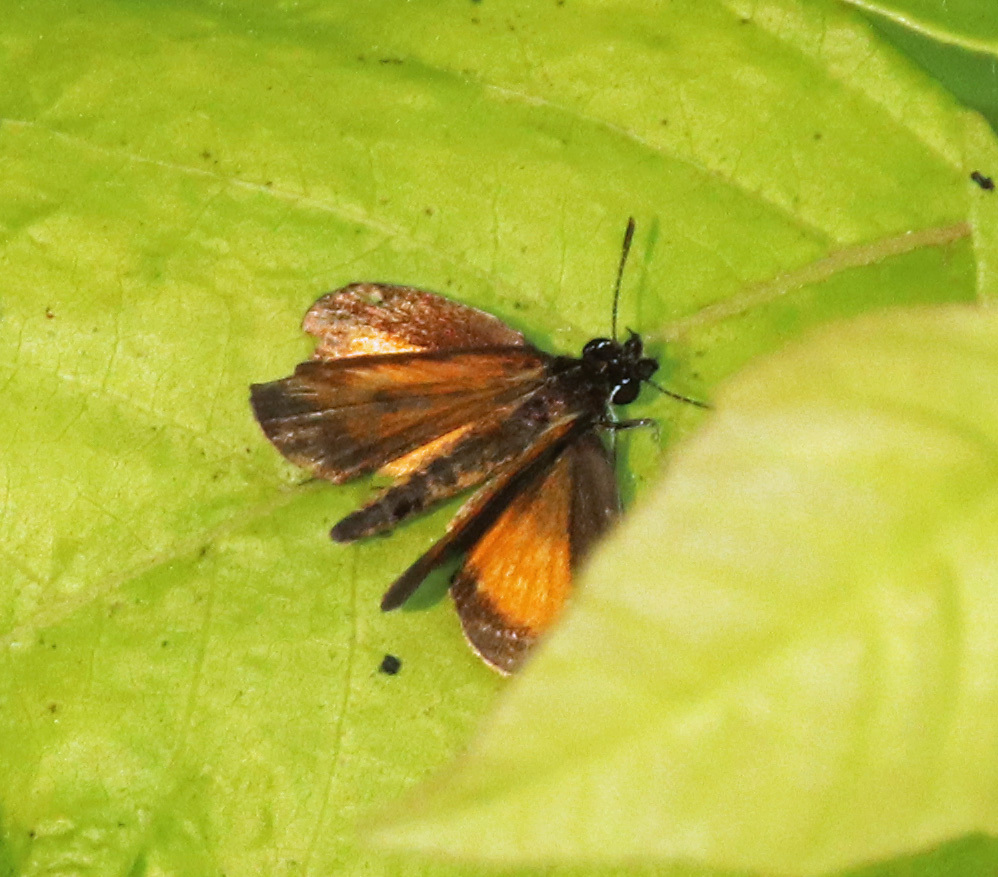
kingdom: Animalia
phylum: Arthropoda
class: Insecta
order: Lepidoptera
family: Hesperiidae
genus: Ancyloxypha
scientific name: Ancyloxypha numitor
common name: Least skipper
